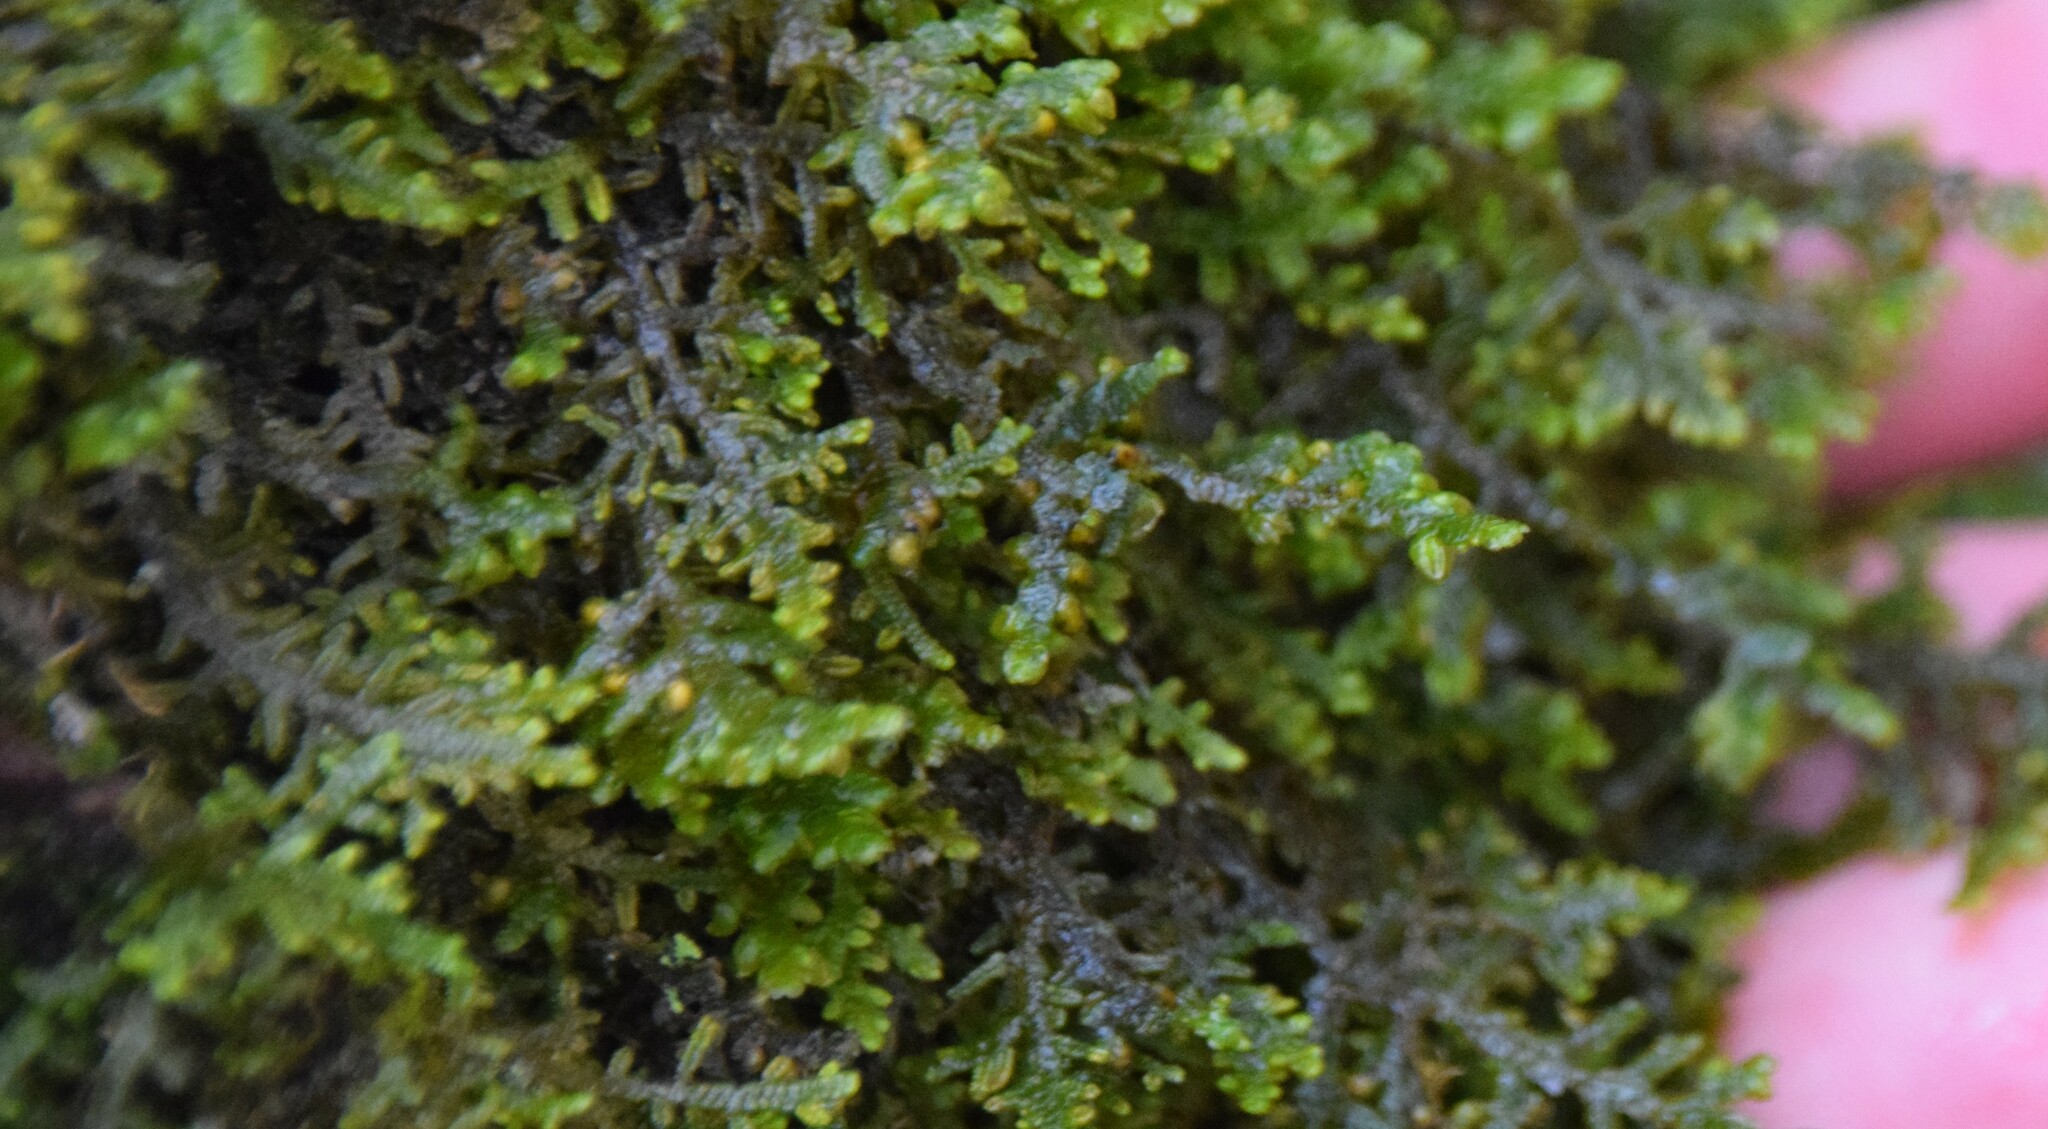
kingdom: Plantae
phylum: Marchantiophyta
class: Jungermanniopsida
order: Porellales
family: Porellaceae
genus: Porella
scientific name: Porella platyphylla
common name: Wall scalewort
